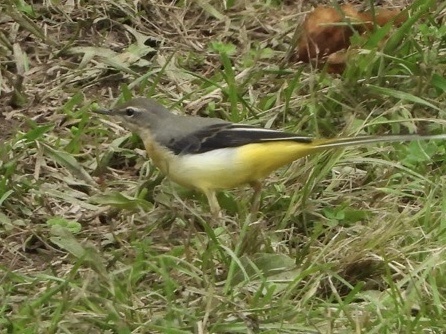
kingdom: Animalia
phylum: Chordata
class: Aves
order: Passeriformes
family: Motacillidae
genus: Motacilla
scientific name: Motacilla cinerea
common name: Grey wagtail
